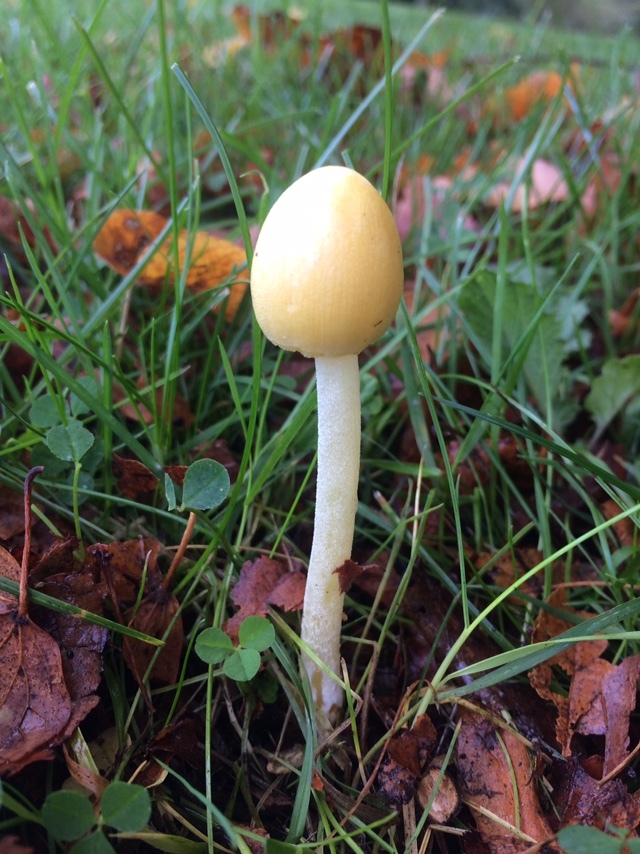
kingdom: Fungi
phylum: Basidiomycota
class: Agaricomycetes
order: Agaricales
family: Bolbitiaceae
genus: Bolbitius
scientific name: Bolbitius titubans
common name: Yellow fieldcap
